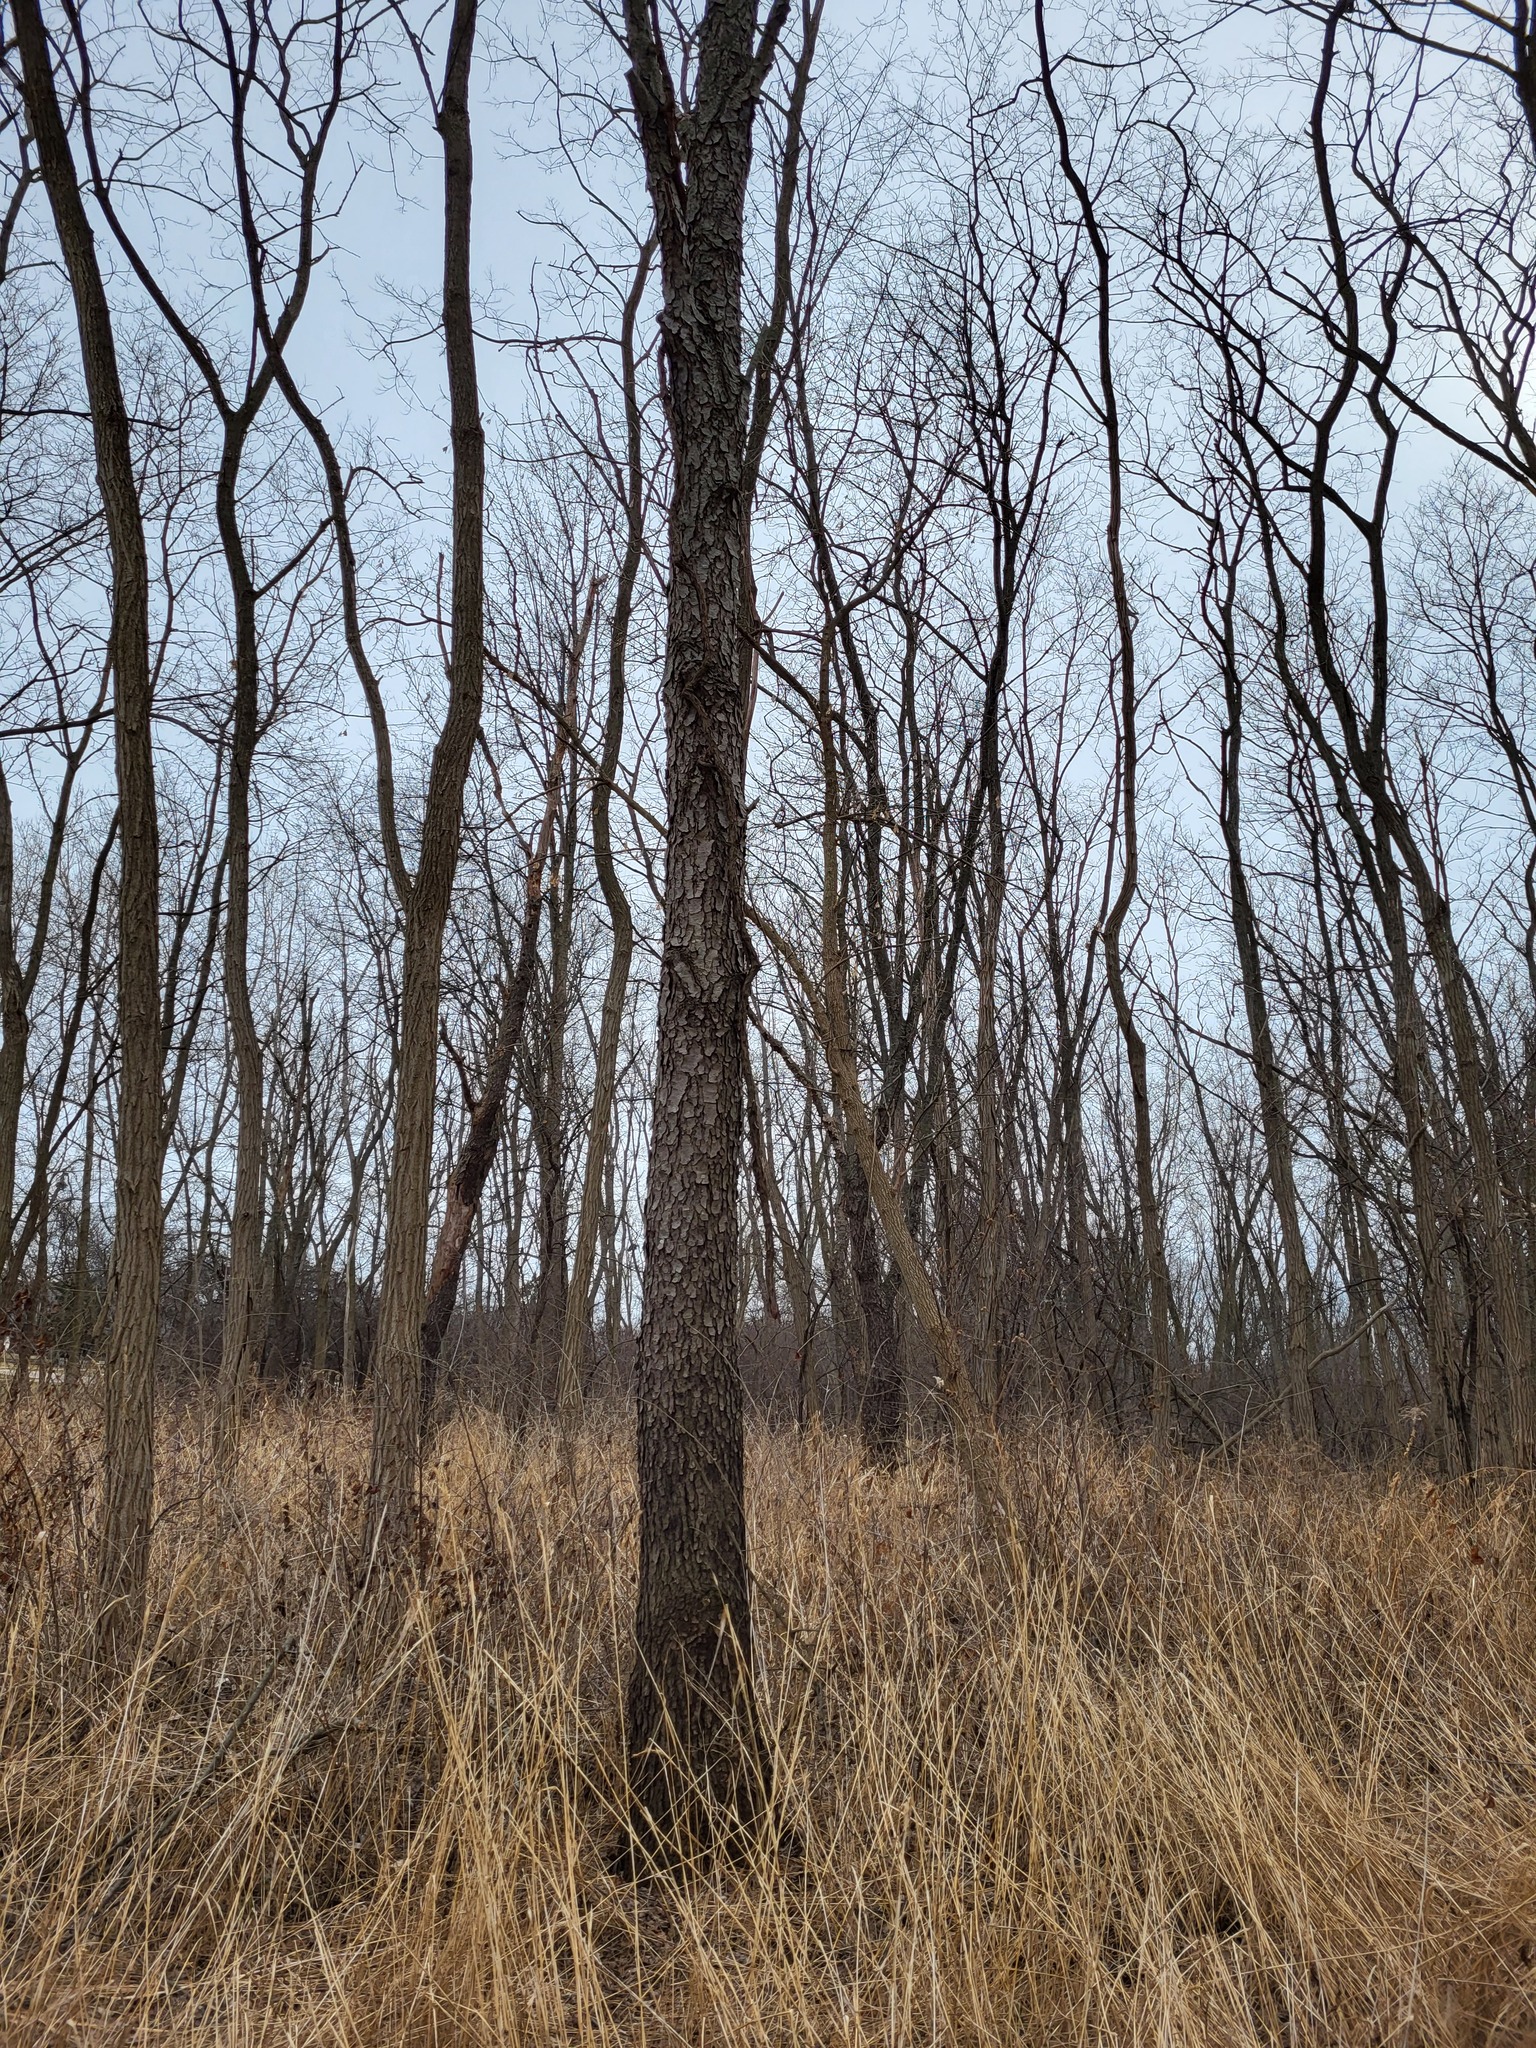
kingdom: Plantae
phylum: Tracheophyta
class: Magnoliopsida
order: Rosales
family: Rosaceae
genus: Prunus
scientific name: Prunus serotina
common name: Black cherry
